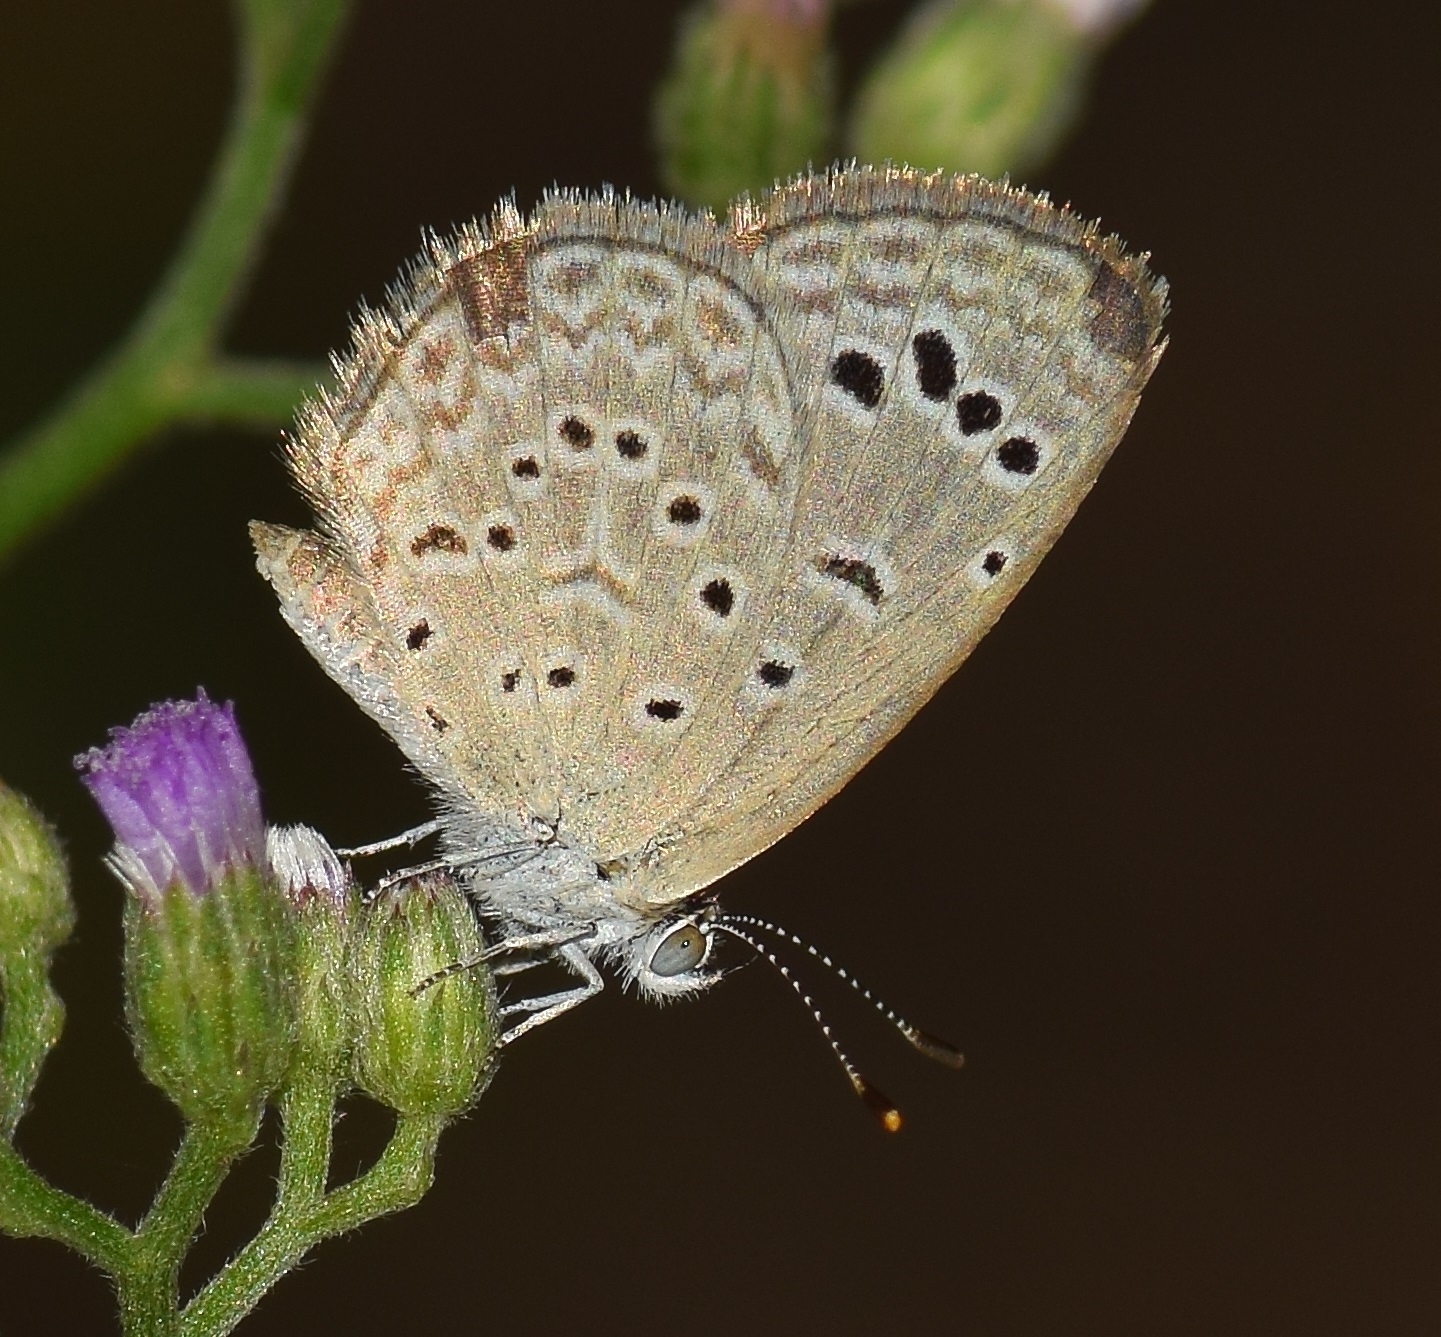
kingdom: Animalia
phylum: Arthropoda
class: Insecta
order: Lepidoptera
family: Lycaenidae
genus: Zizeeria
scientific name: Zizeeria karsandra
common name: Dark grass blue
